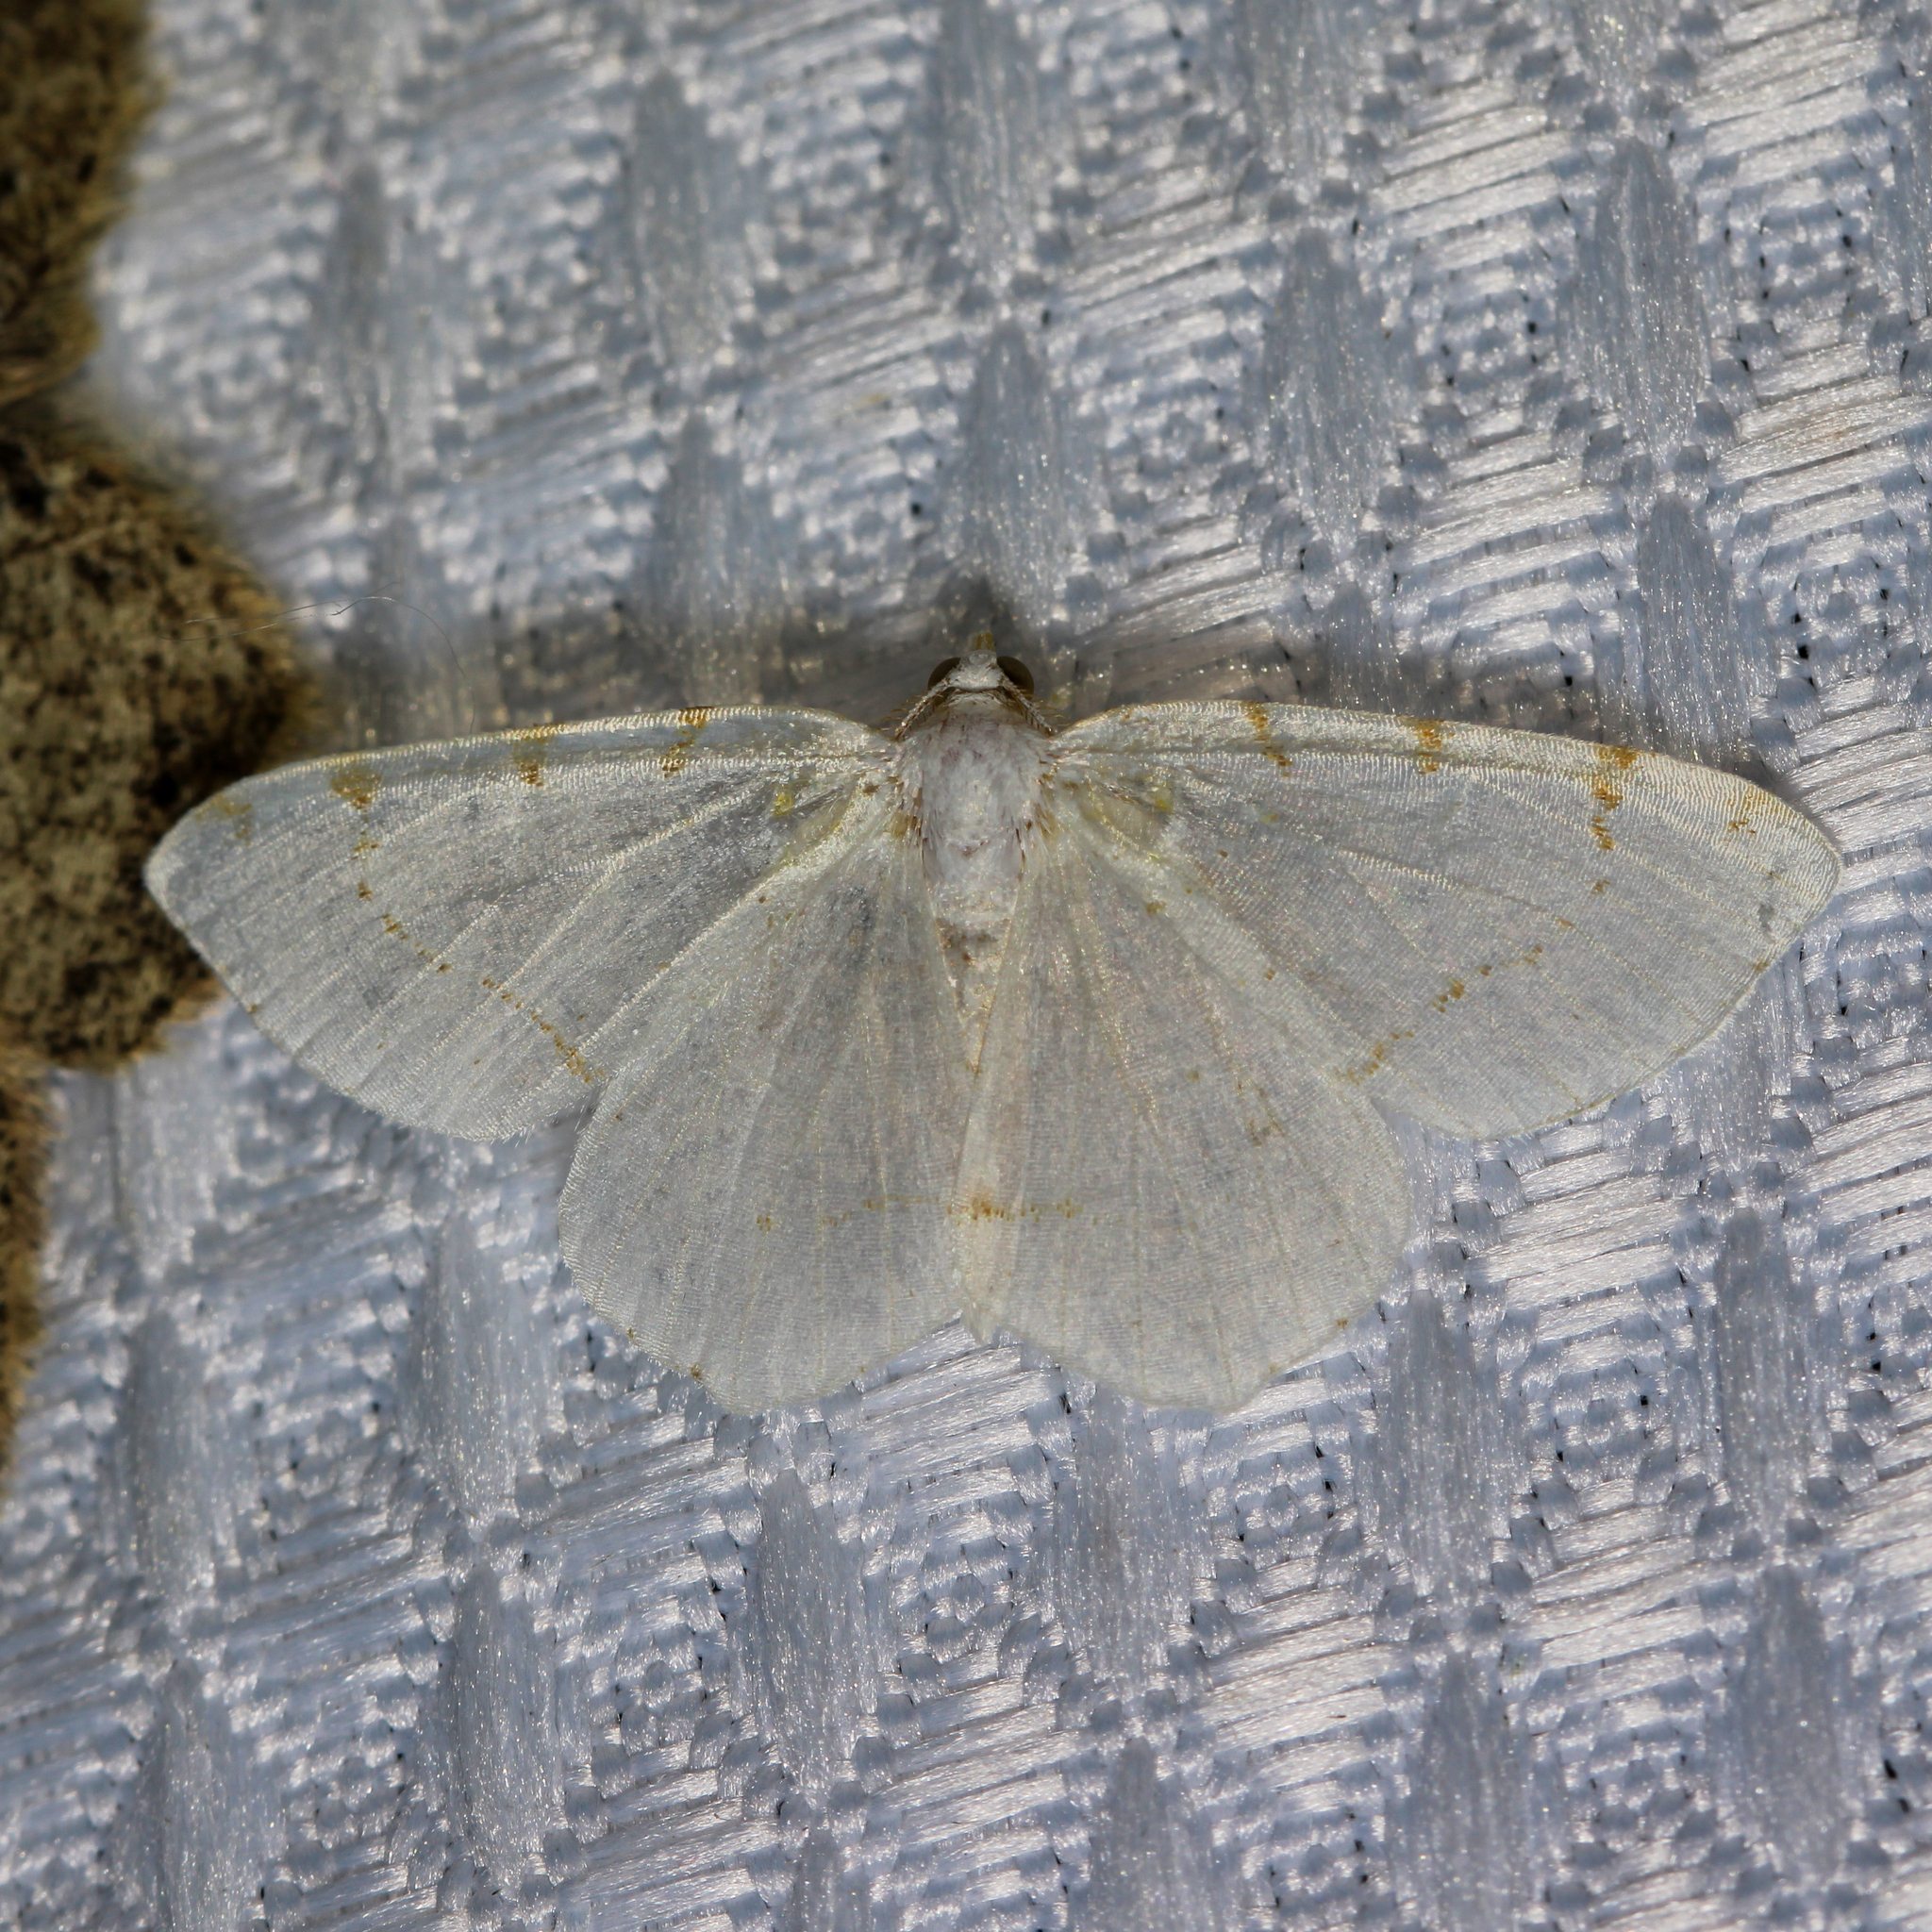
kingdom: Animalia
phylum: Arthropoda
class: Insecta
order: Lepidoptera
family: Geometridae
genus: Macaria
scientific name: Macaria pustularia
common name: Lesser maple spanworm moth
